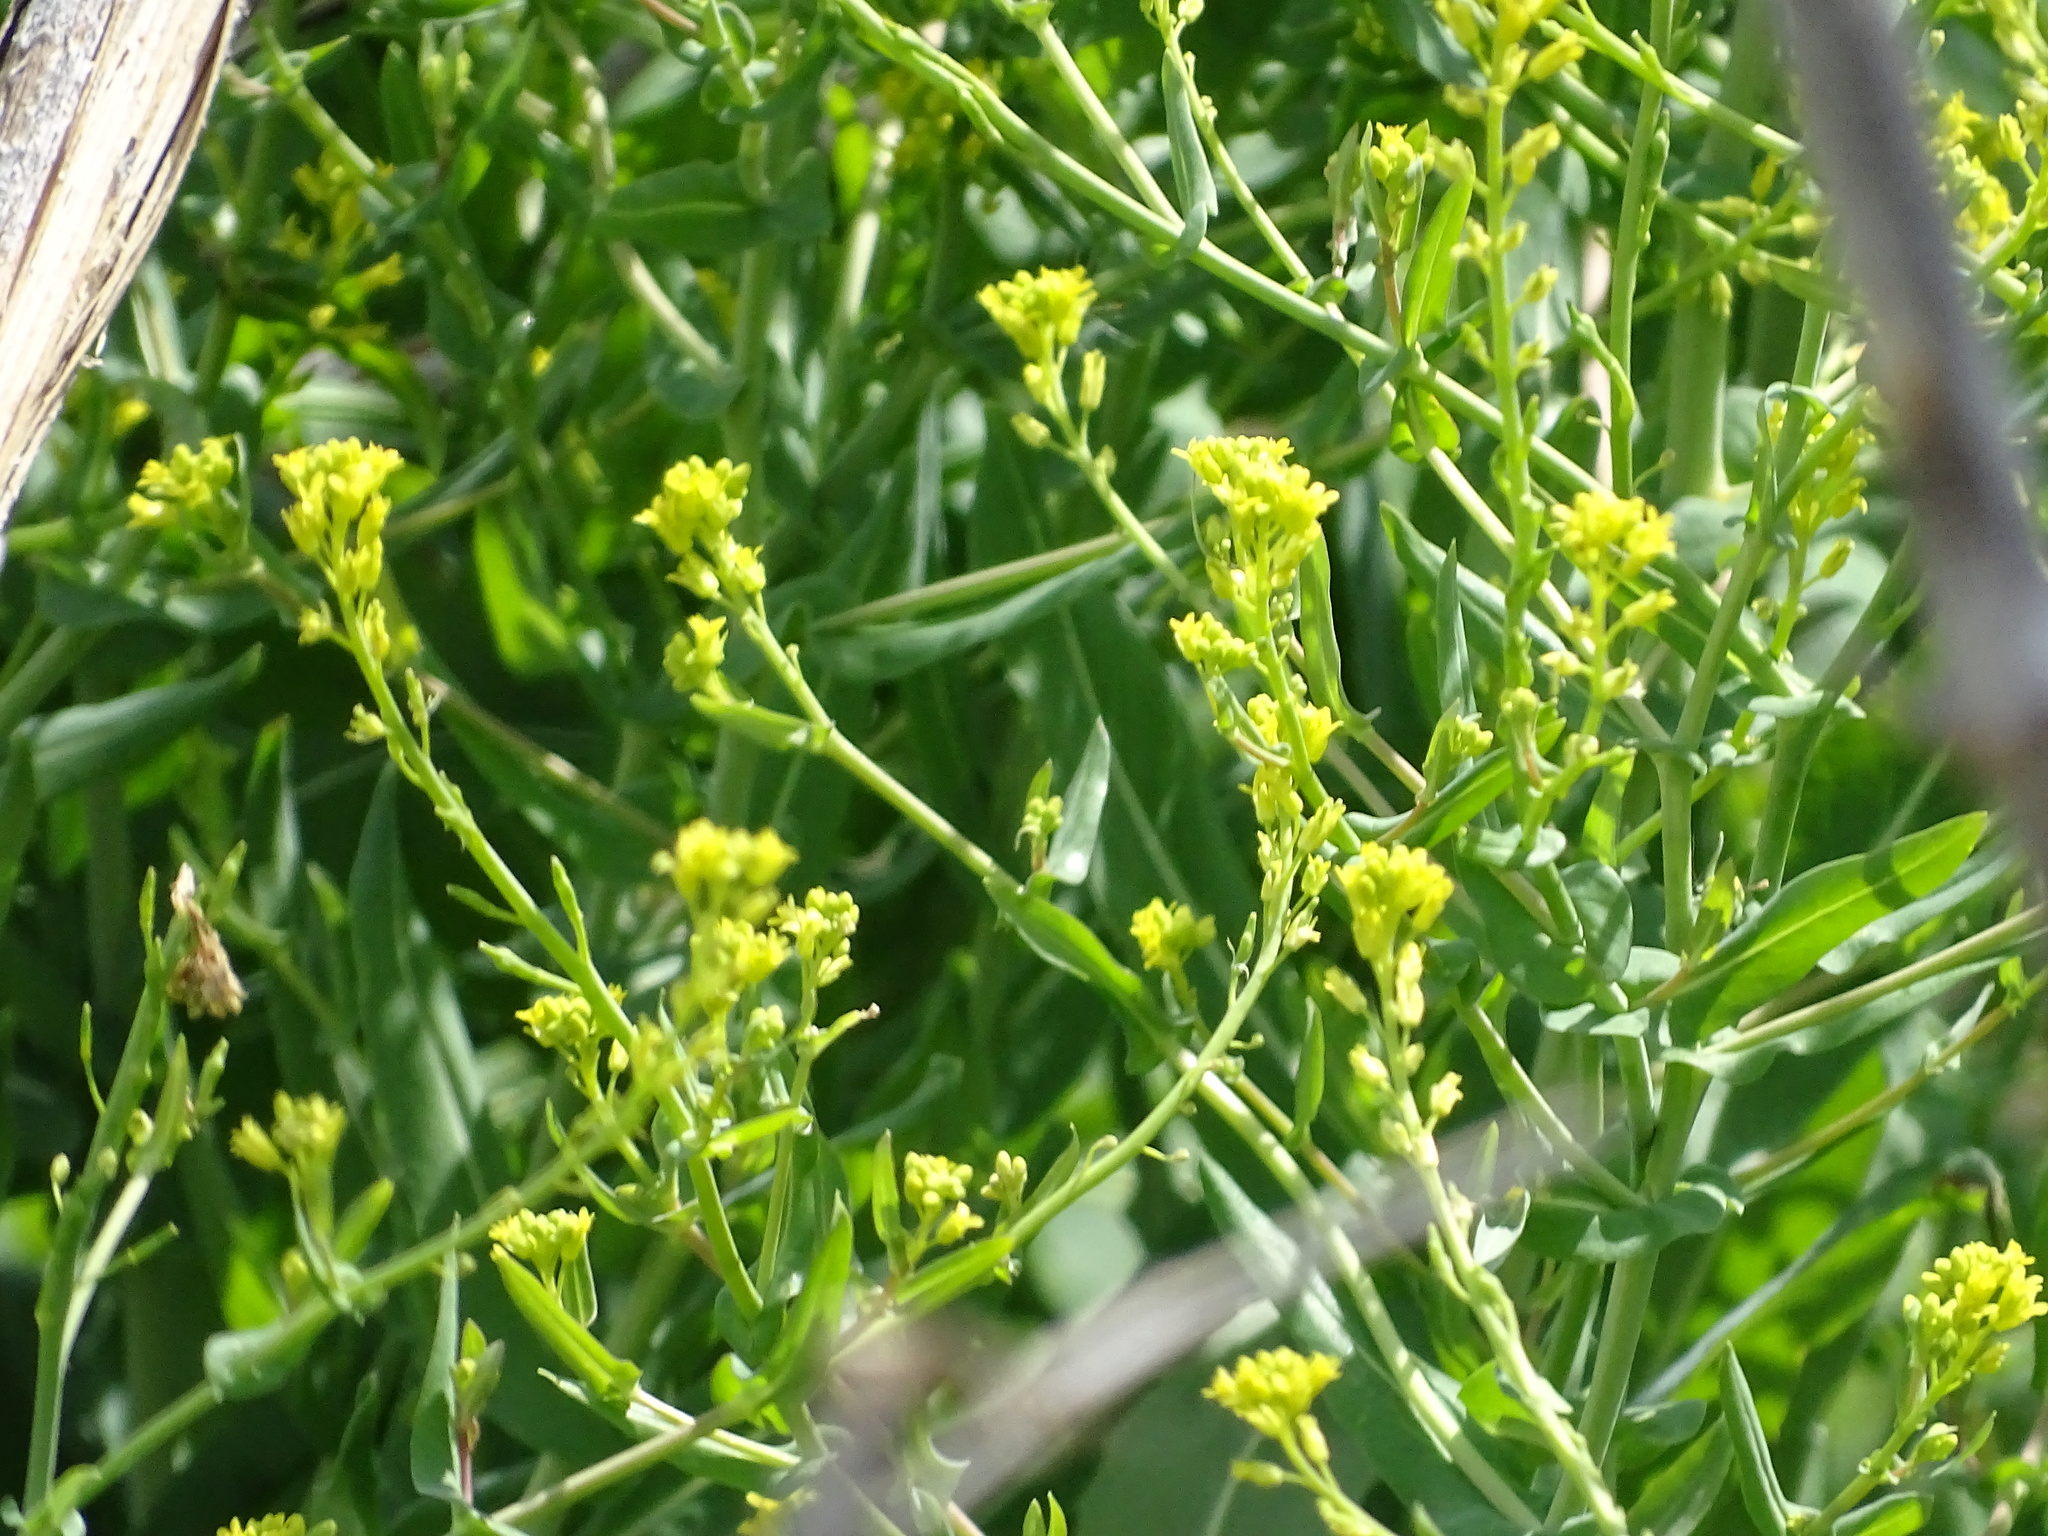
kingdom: Plantae
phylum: Tracheophyta
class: Magnoliopsida
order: Brassicales
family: Brassicaceae
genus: Myagrum
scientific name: Myagrum perfoliatum
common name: Mitre cress
